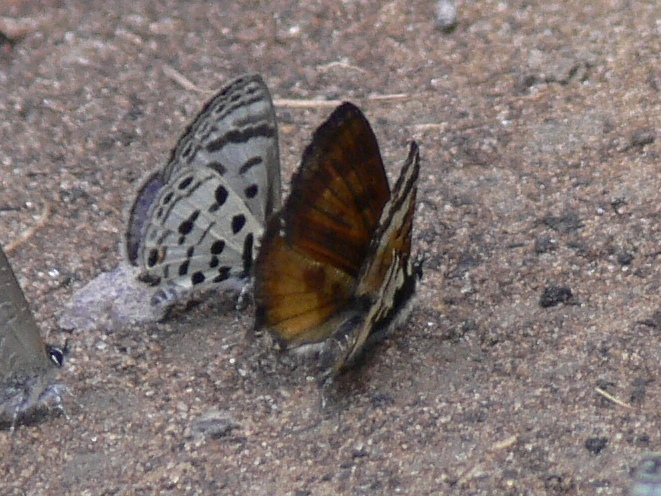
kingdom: Animalia
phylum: Arthropoda
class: Insecta
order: Lepidoptera
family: Lycaenidae
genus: Uranothauma
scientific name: Uranothauma falkensteini
